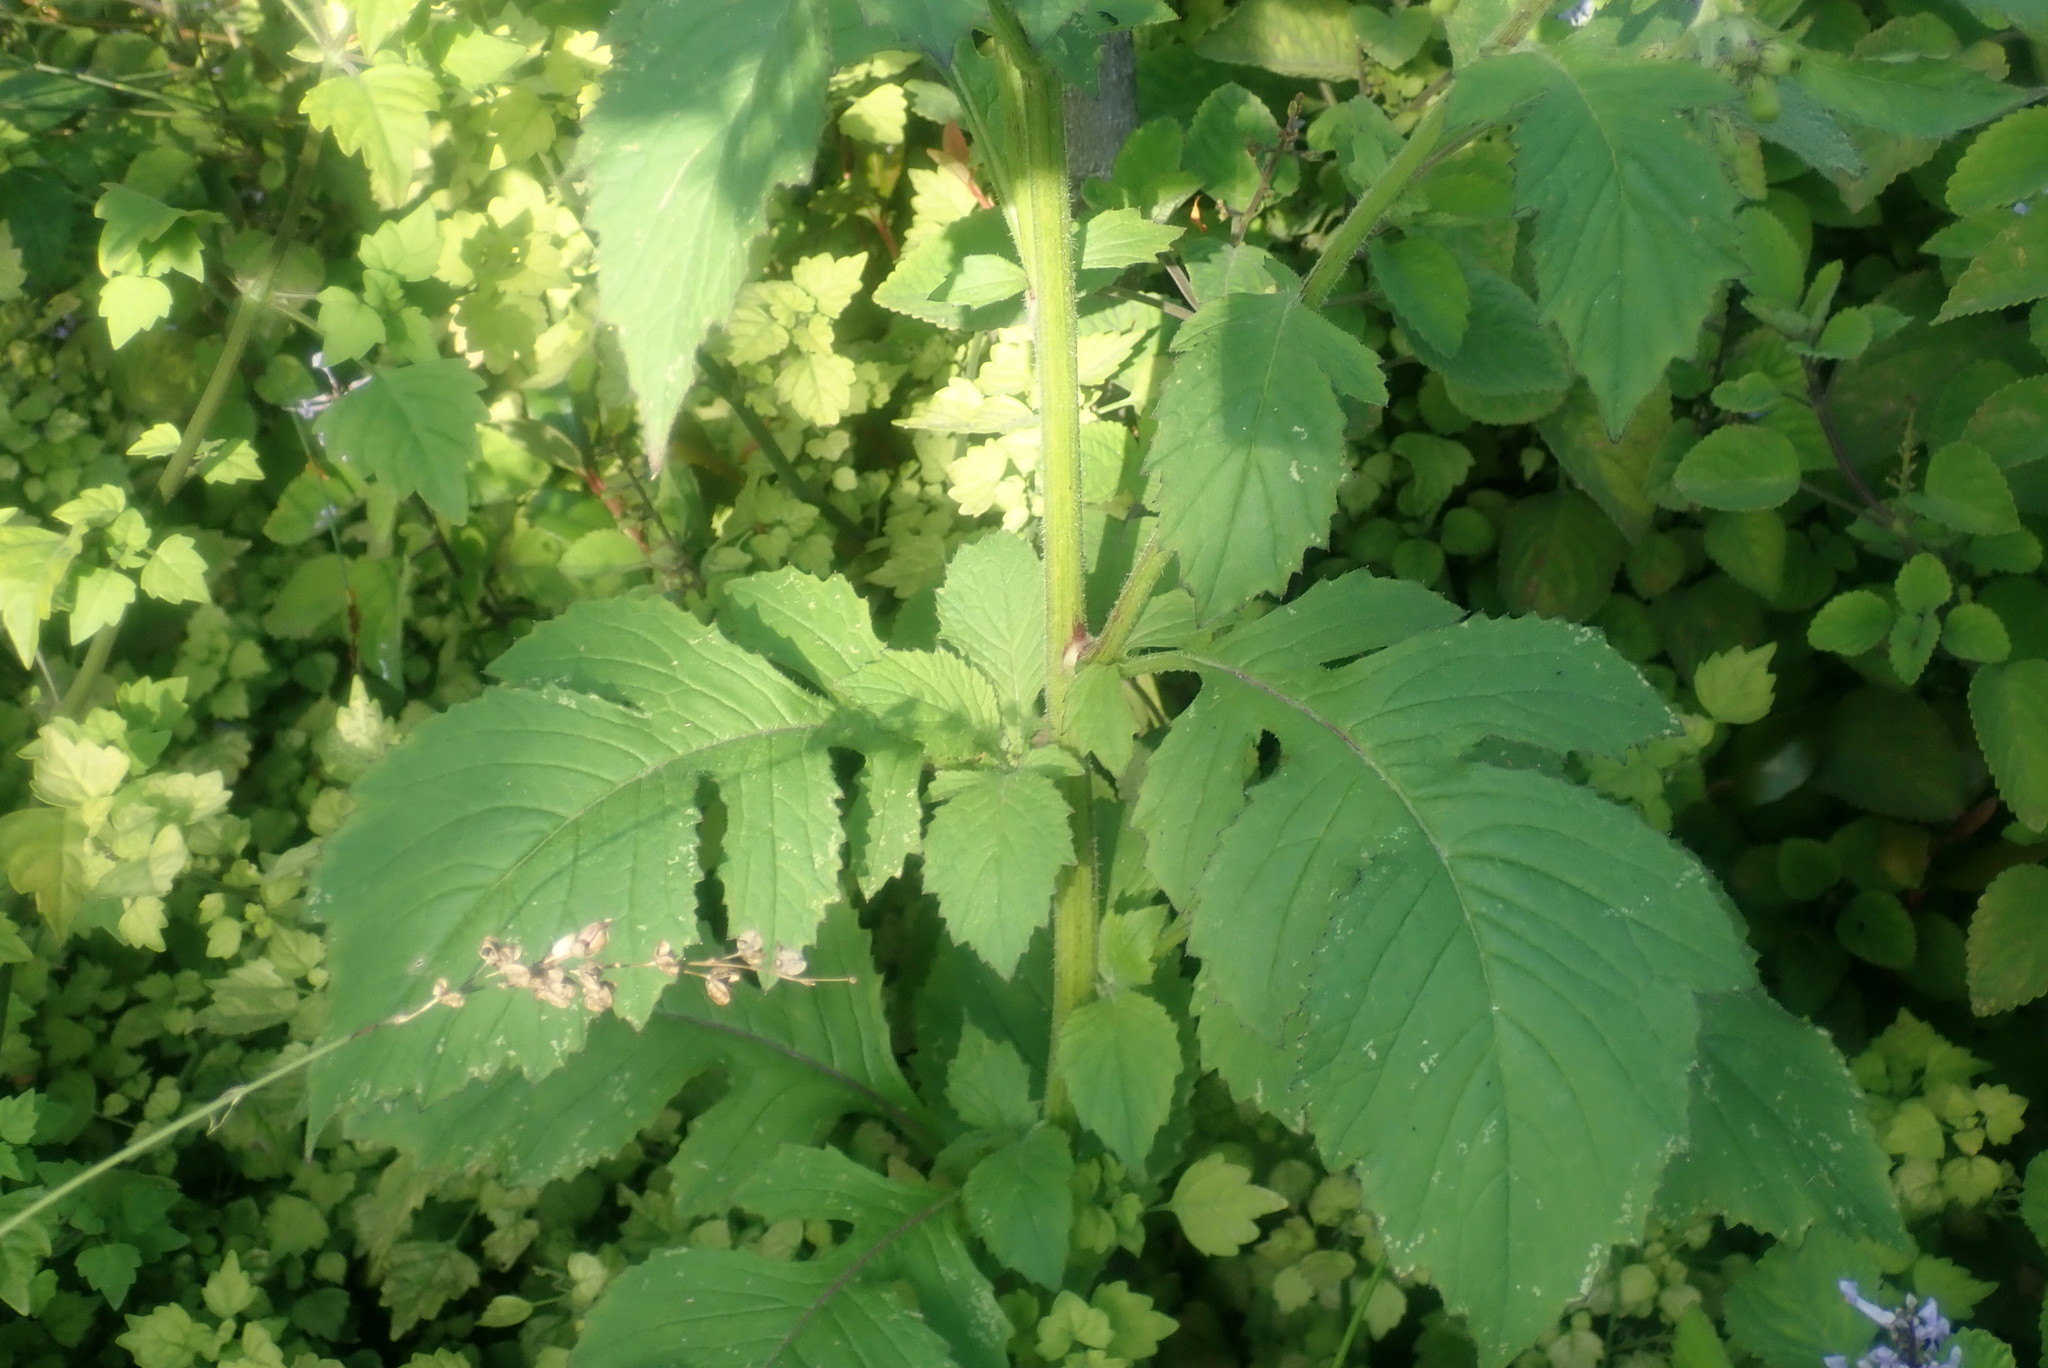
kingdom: Plantae
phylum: Tracheophyta
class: Magnoliopsida
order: Asterales
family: Asteraceae
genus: Crassocephalum
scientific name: Crassocephalum crepidioides
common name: Redflower ragleaf
